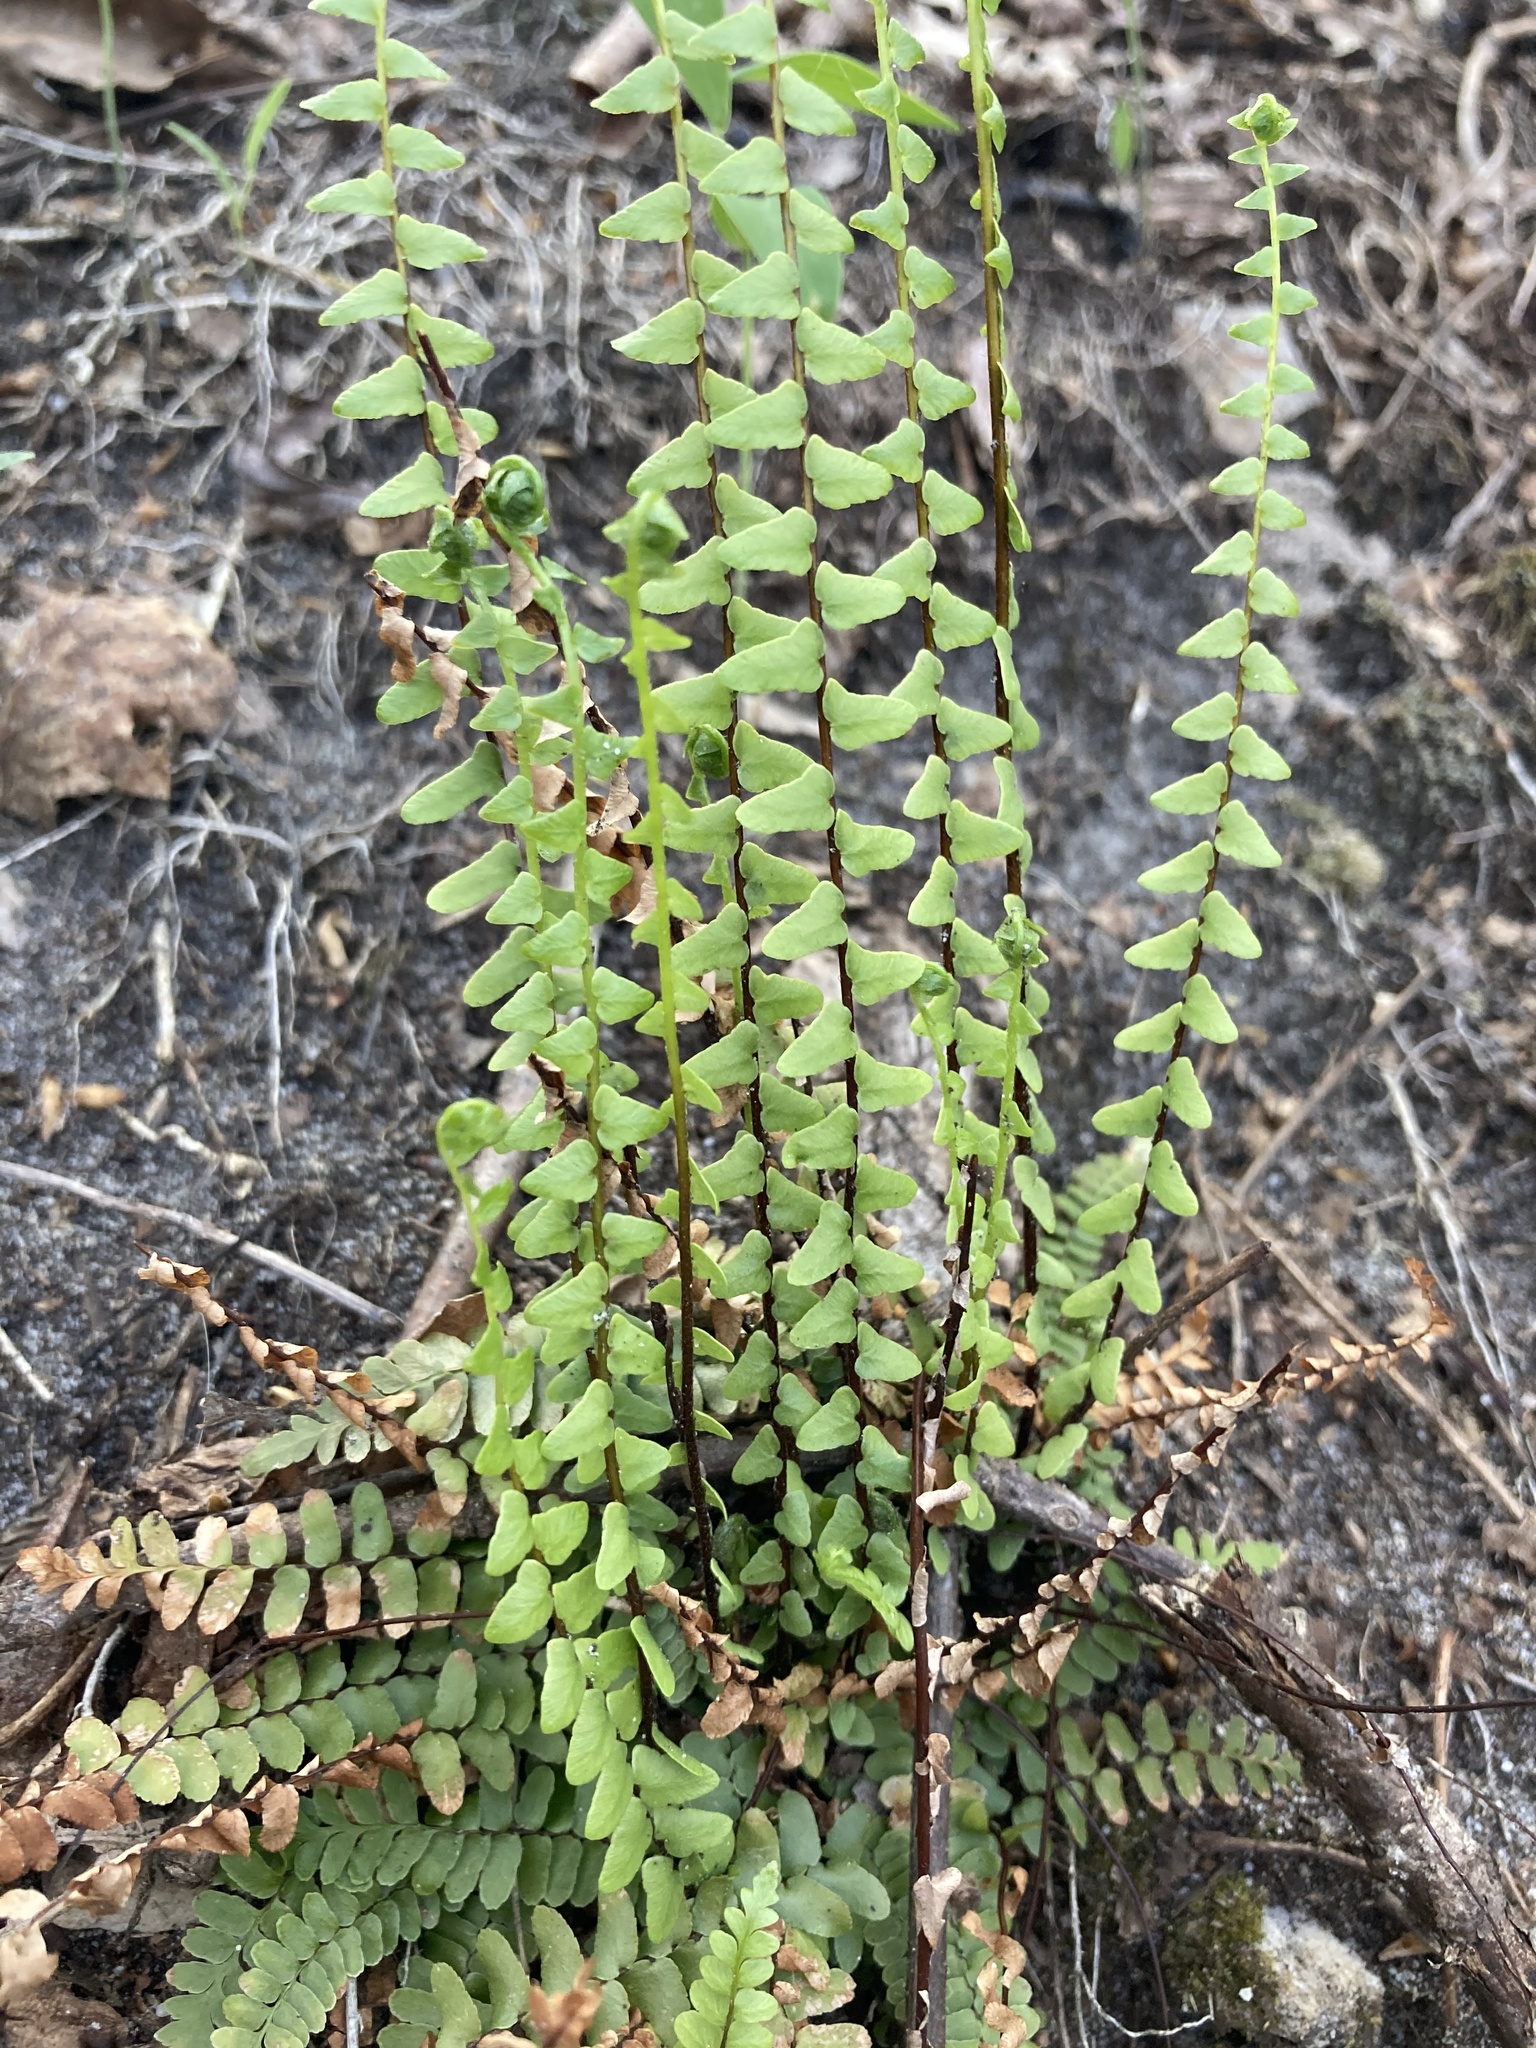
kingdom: Plantae
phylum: Tracheophyta
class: Polypodiopsida
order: Polypodiales
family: Aspleniaceae
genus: Asplenium
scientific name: Asplenium platyneuron
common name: Ebony spleenwort
